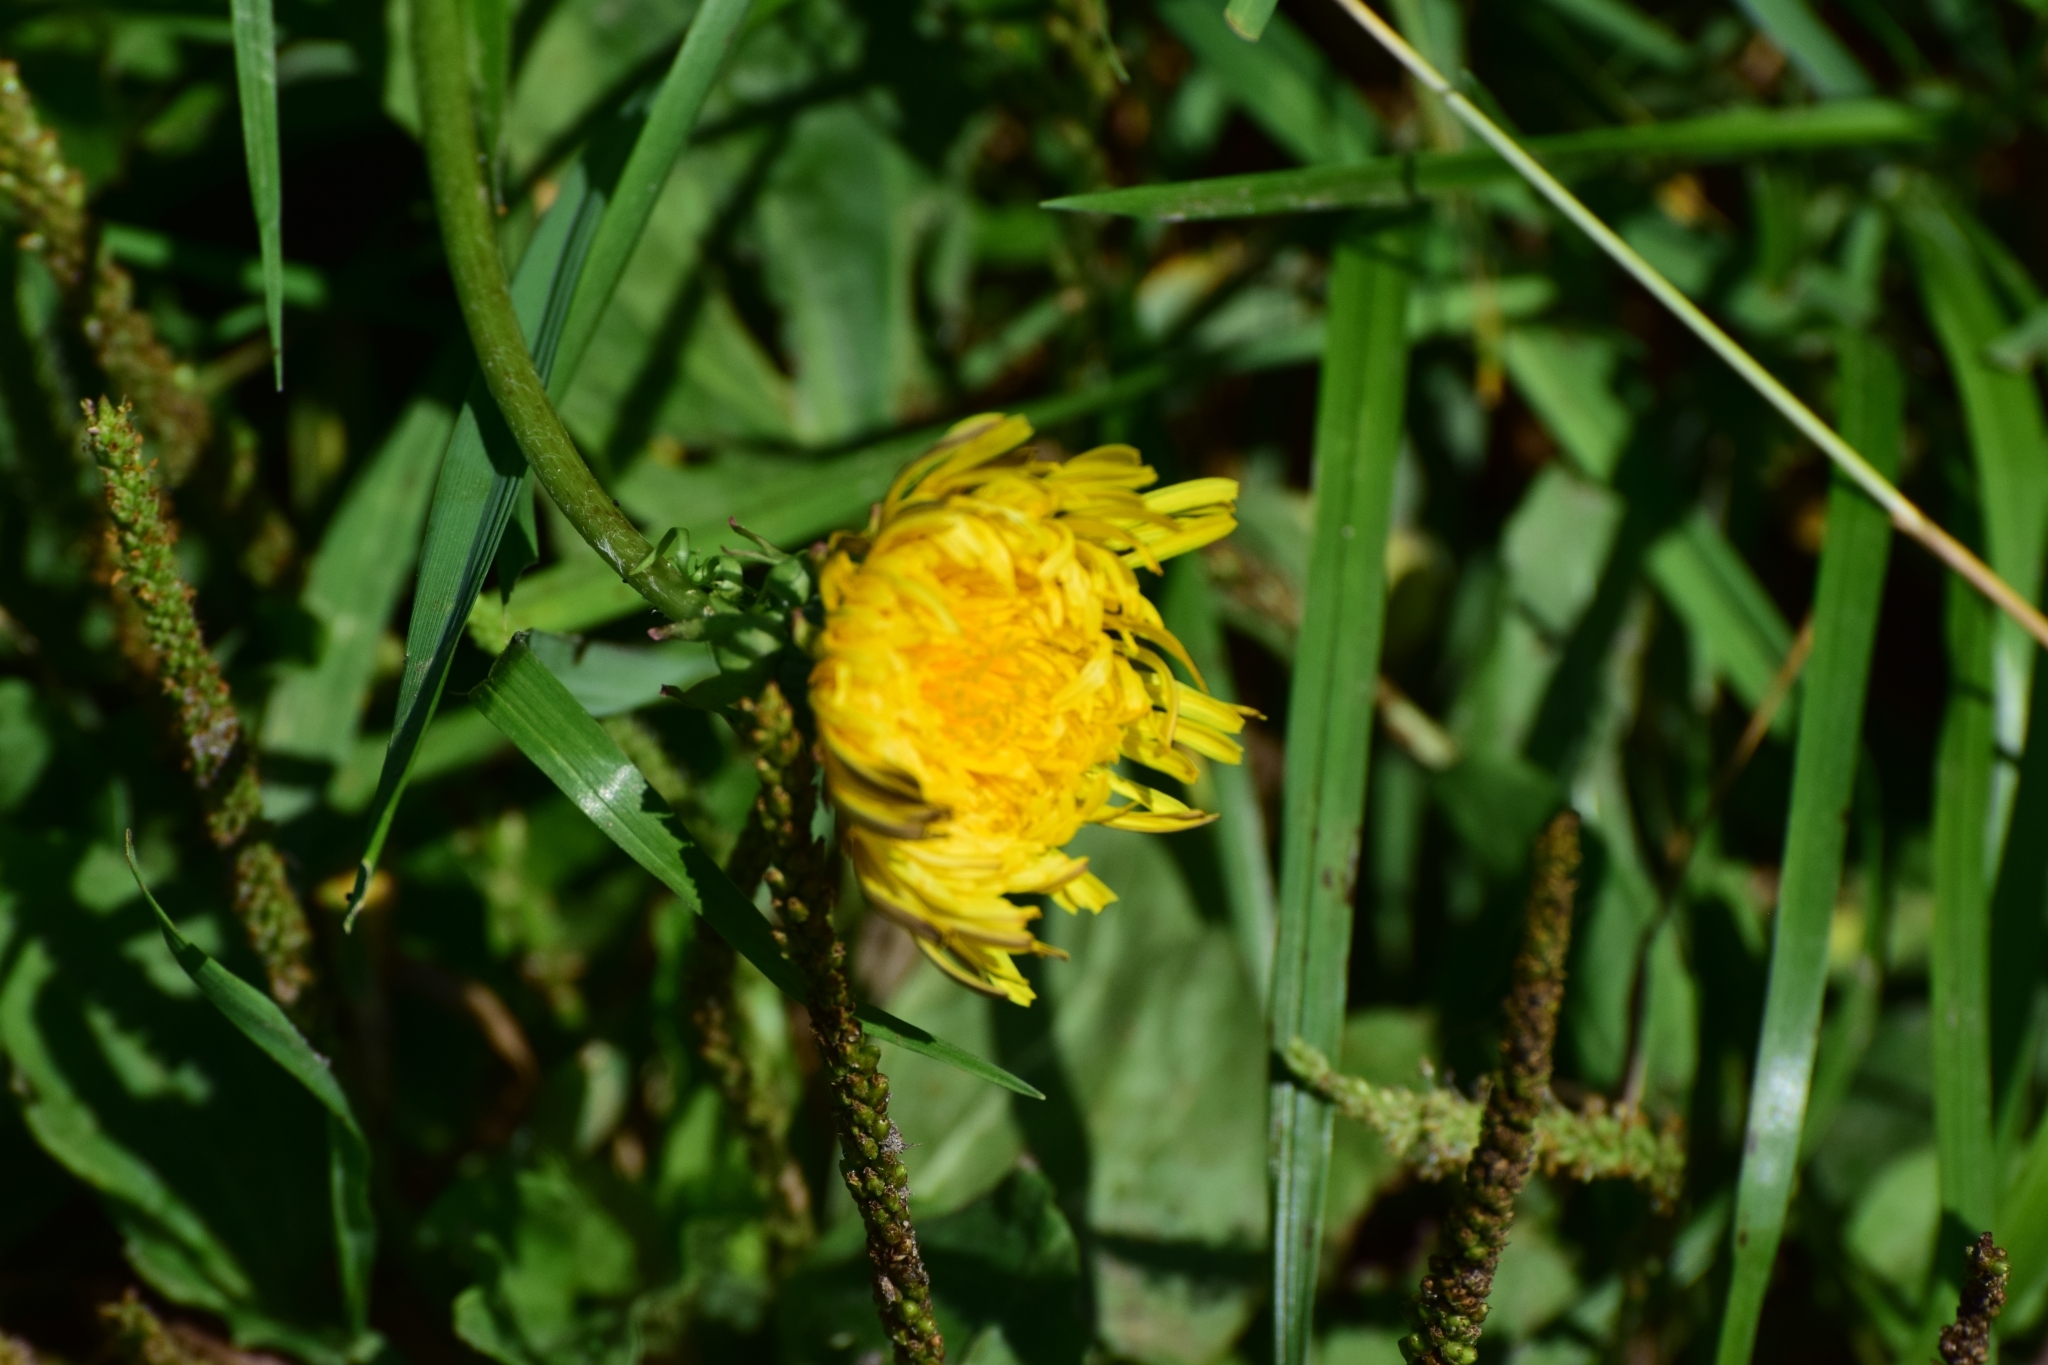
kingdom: Plantae
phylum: Tracheophyta
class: Magnoliopsida
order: Asterales
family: Asteraceae
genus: Taraxacum
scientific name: Taraxacum officinale
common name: Common dandelion
